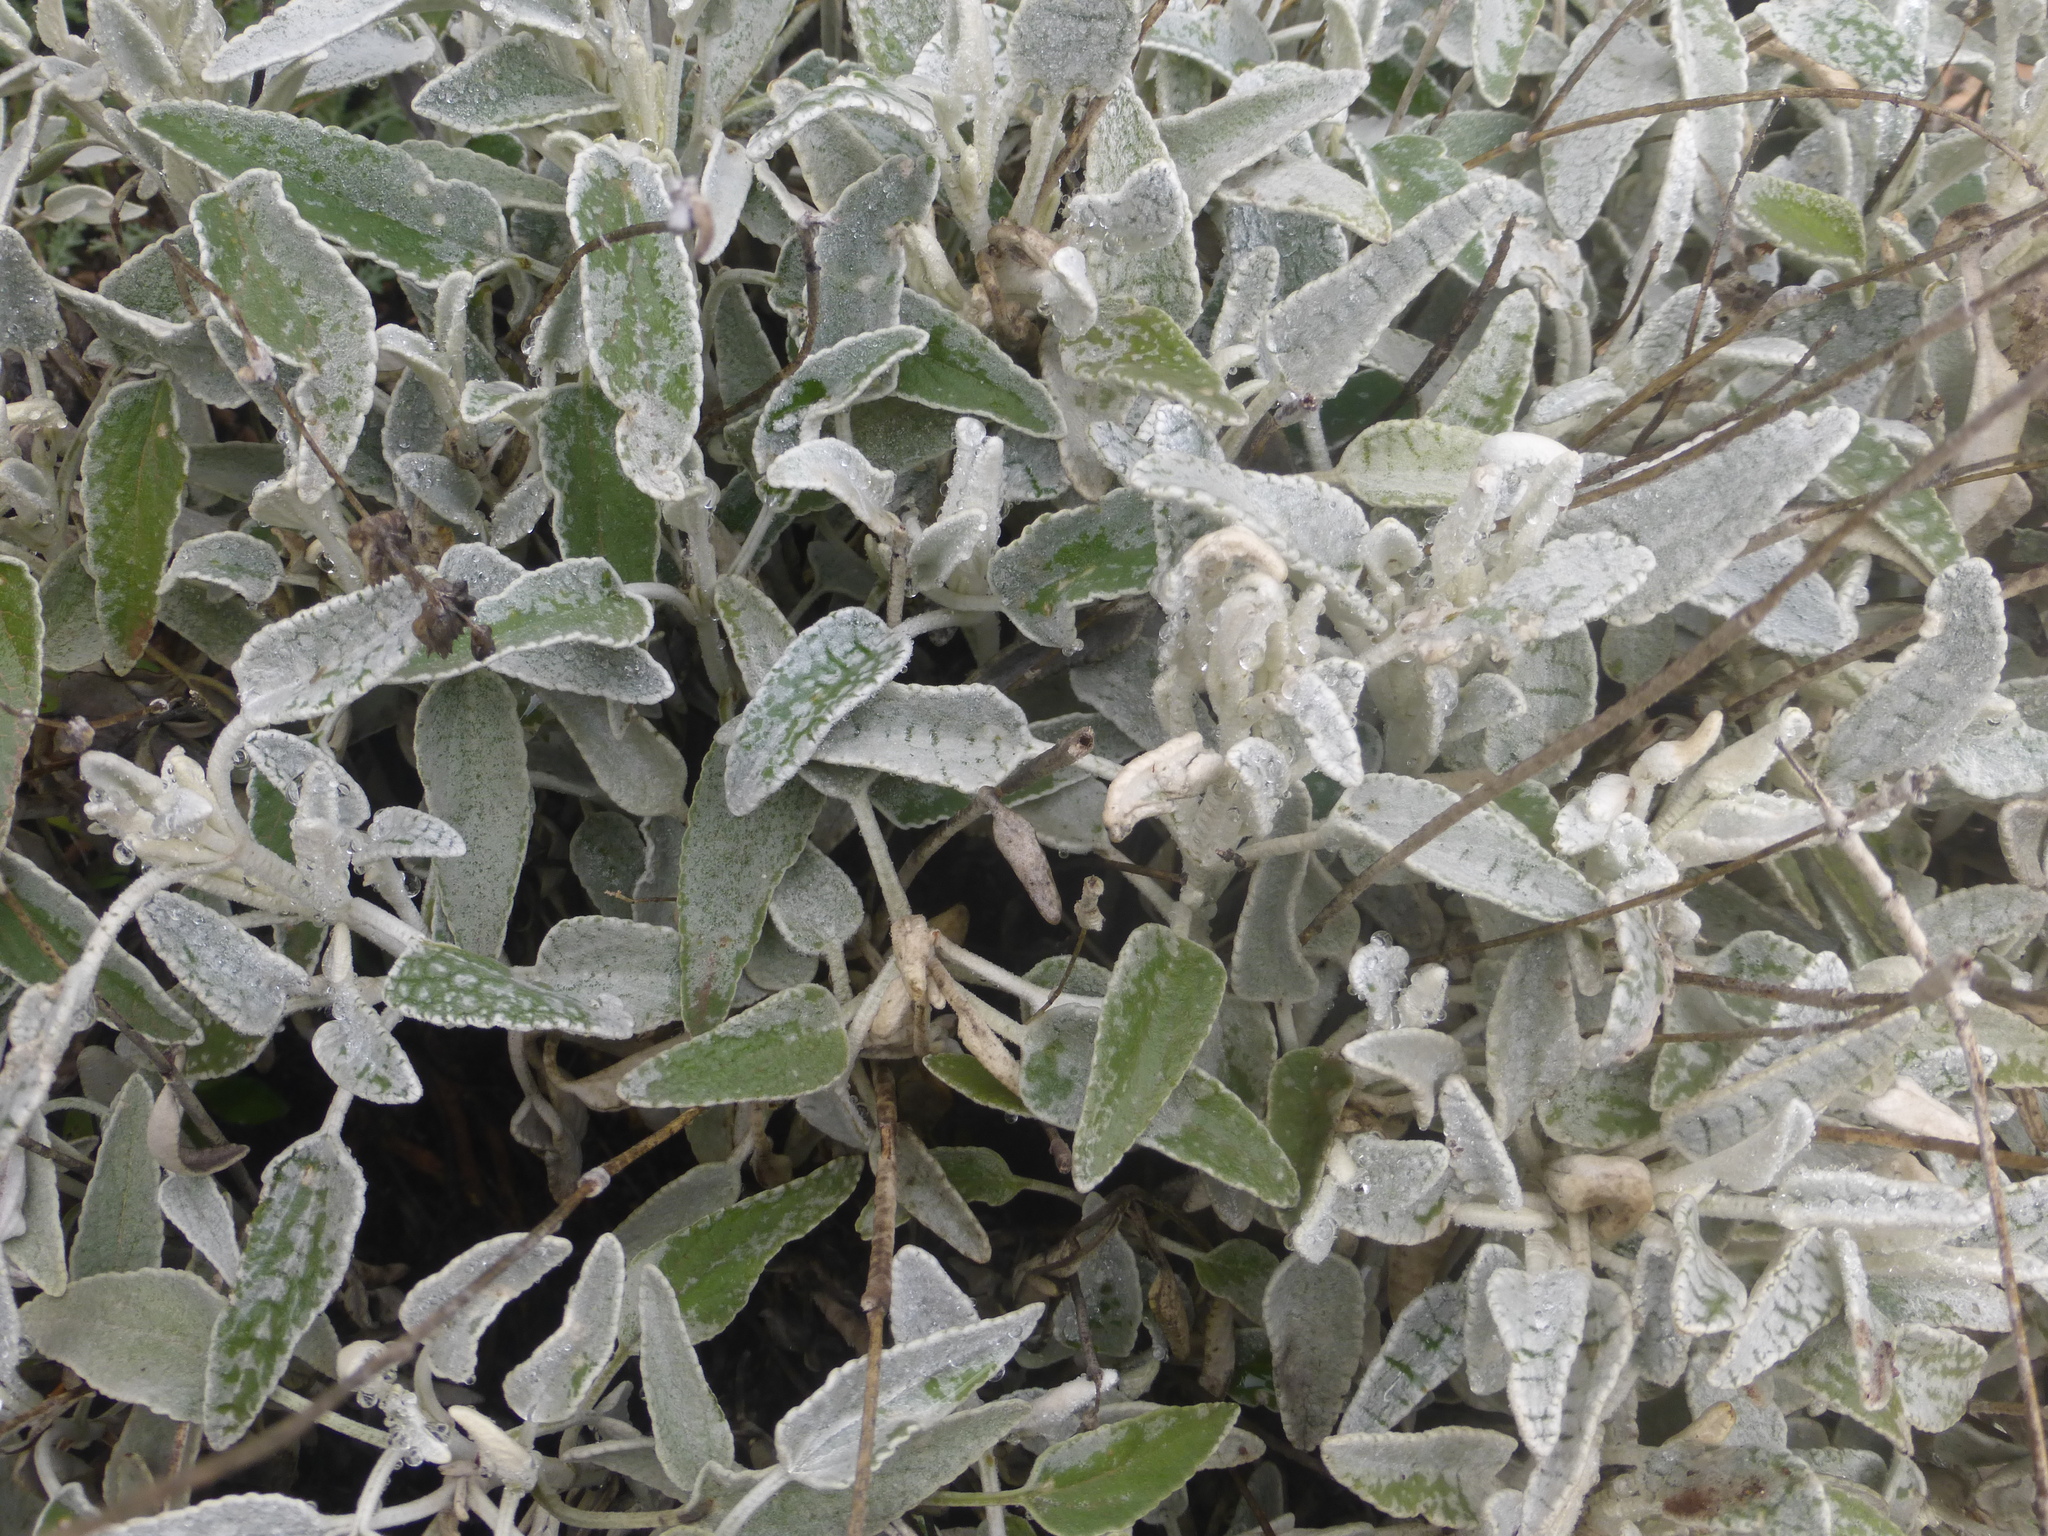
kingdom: Plantae
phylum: Tracheophyta
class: Magnoliopsida
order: Lamiales
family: Lamiaceae
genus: Sideritis
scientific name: Sideritis dasygnaphala
